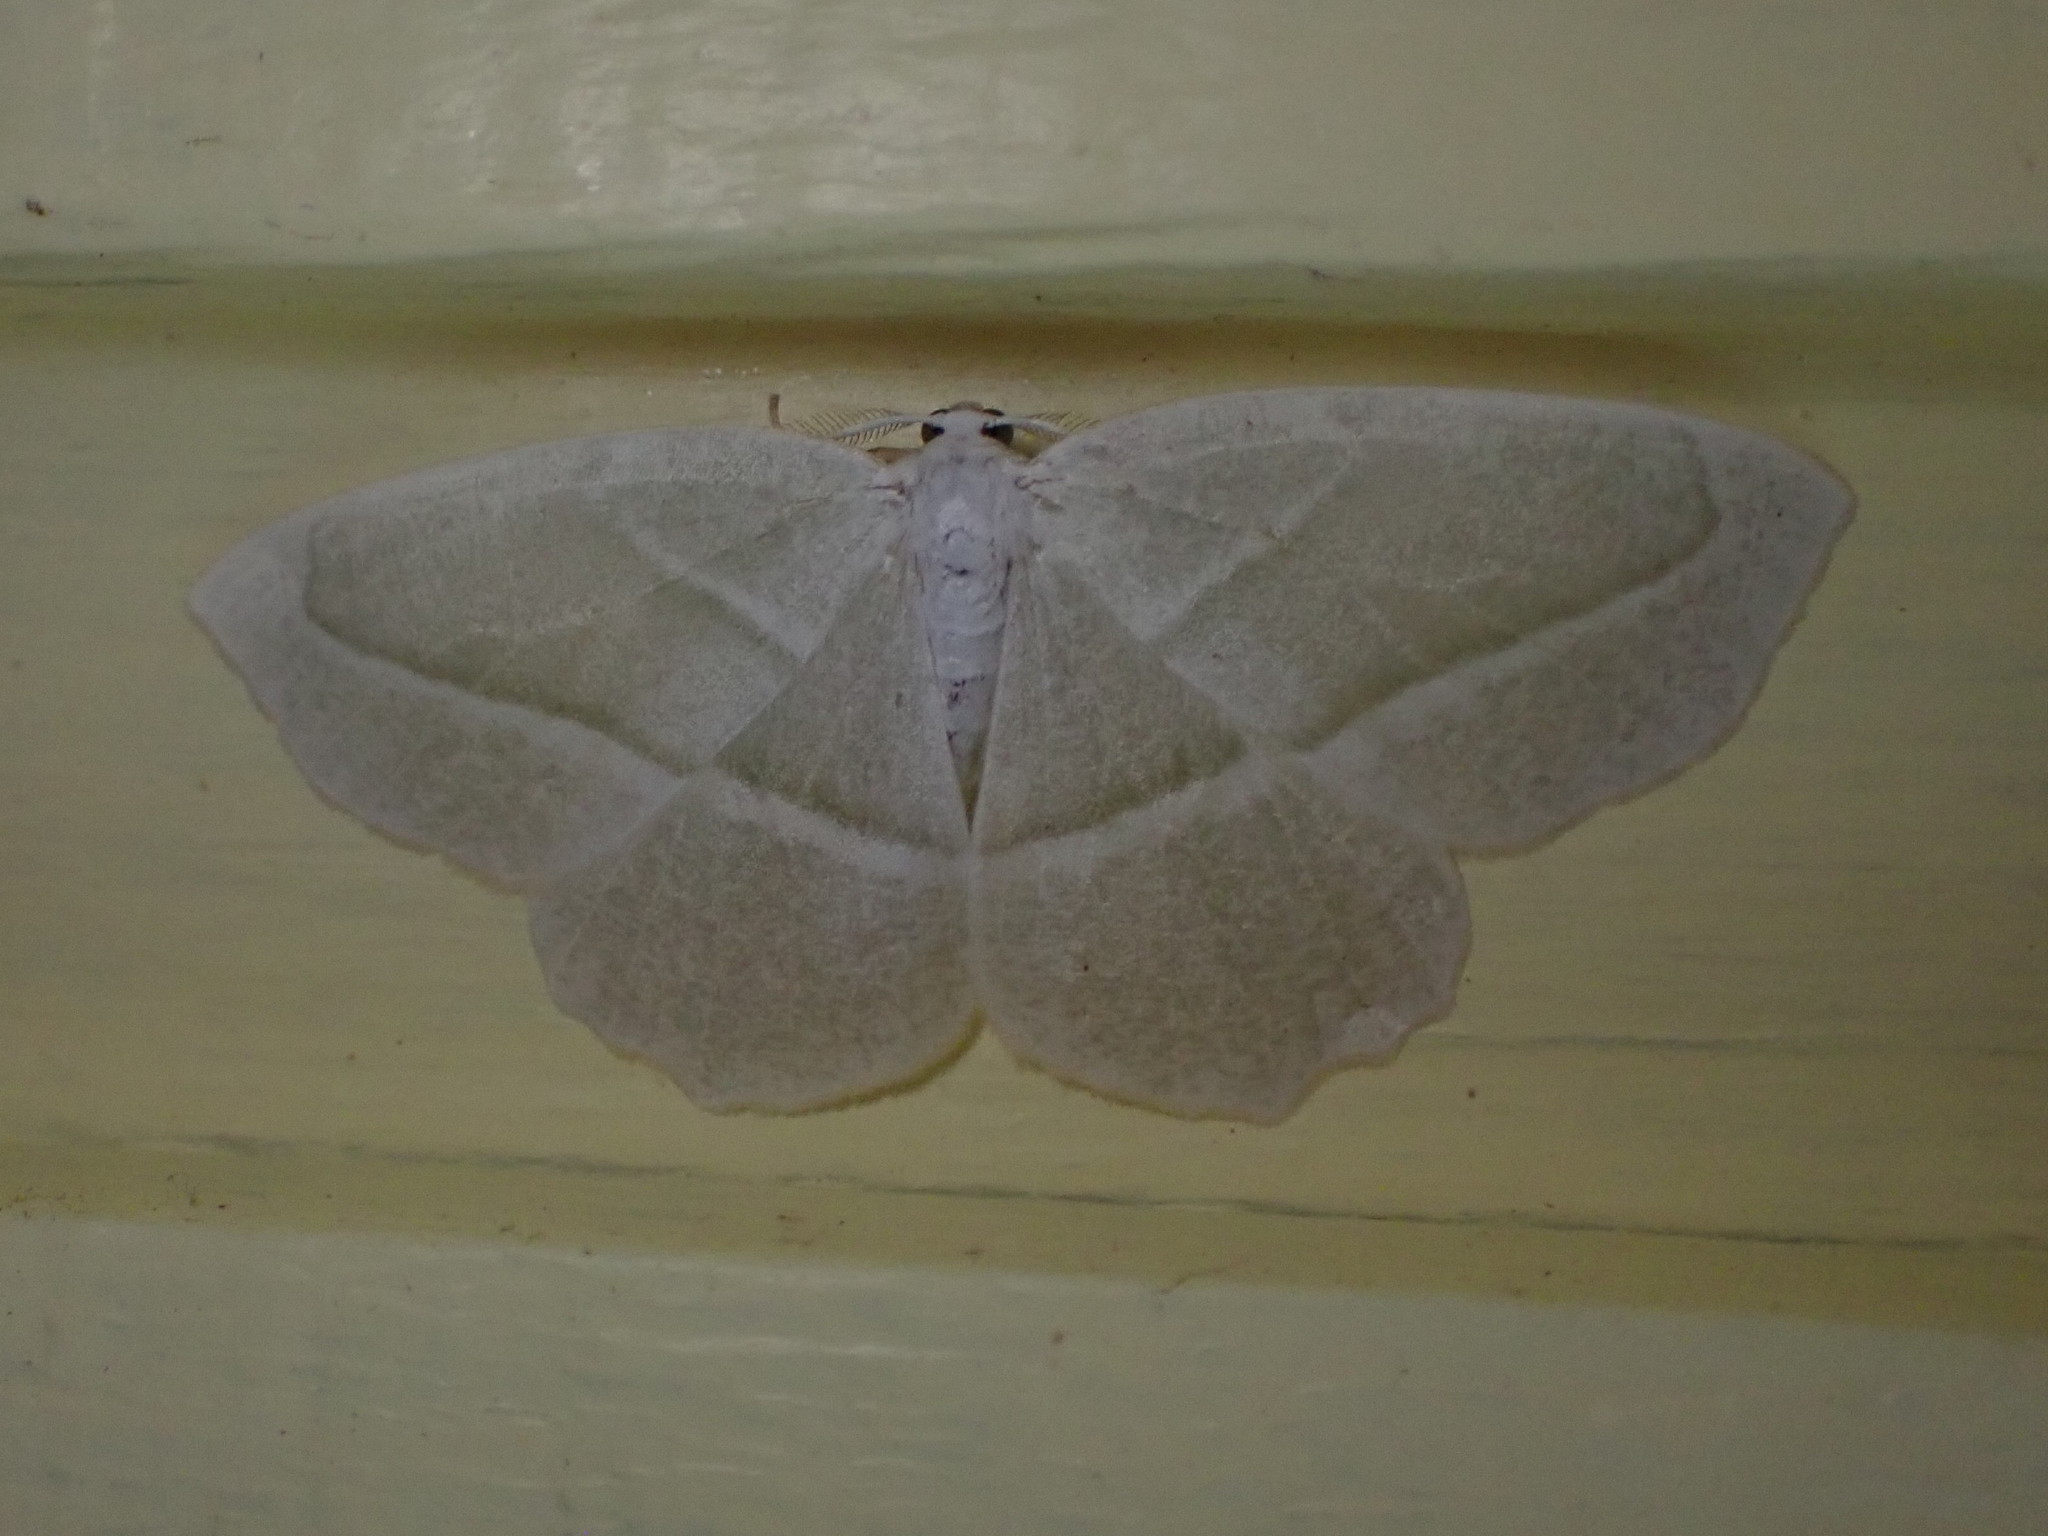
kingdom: Animalia
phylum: Arthropoda
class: Insecta
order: Lepidoptera
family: Geometridae
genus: Campaea
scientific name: Campaea perlata
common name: Fringed looper
